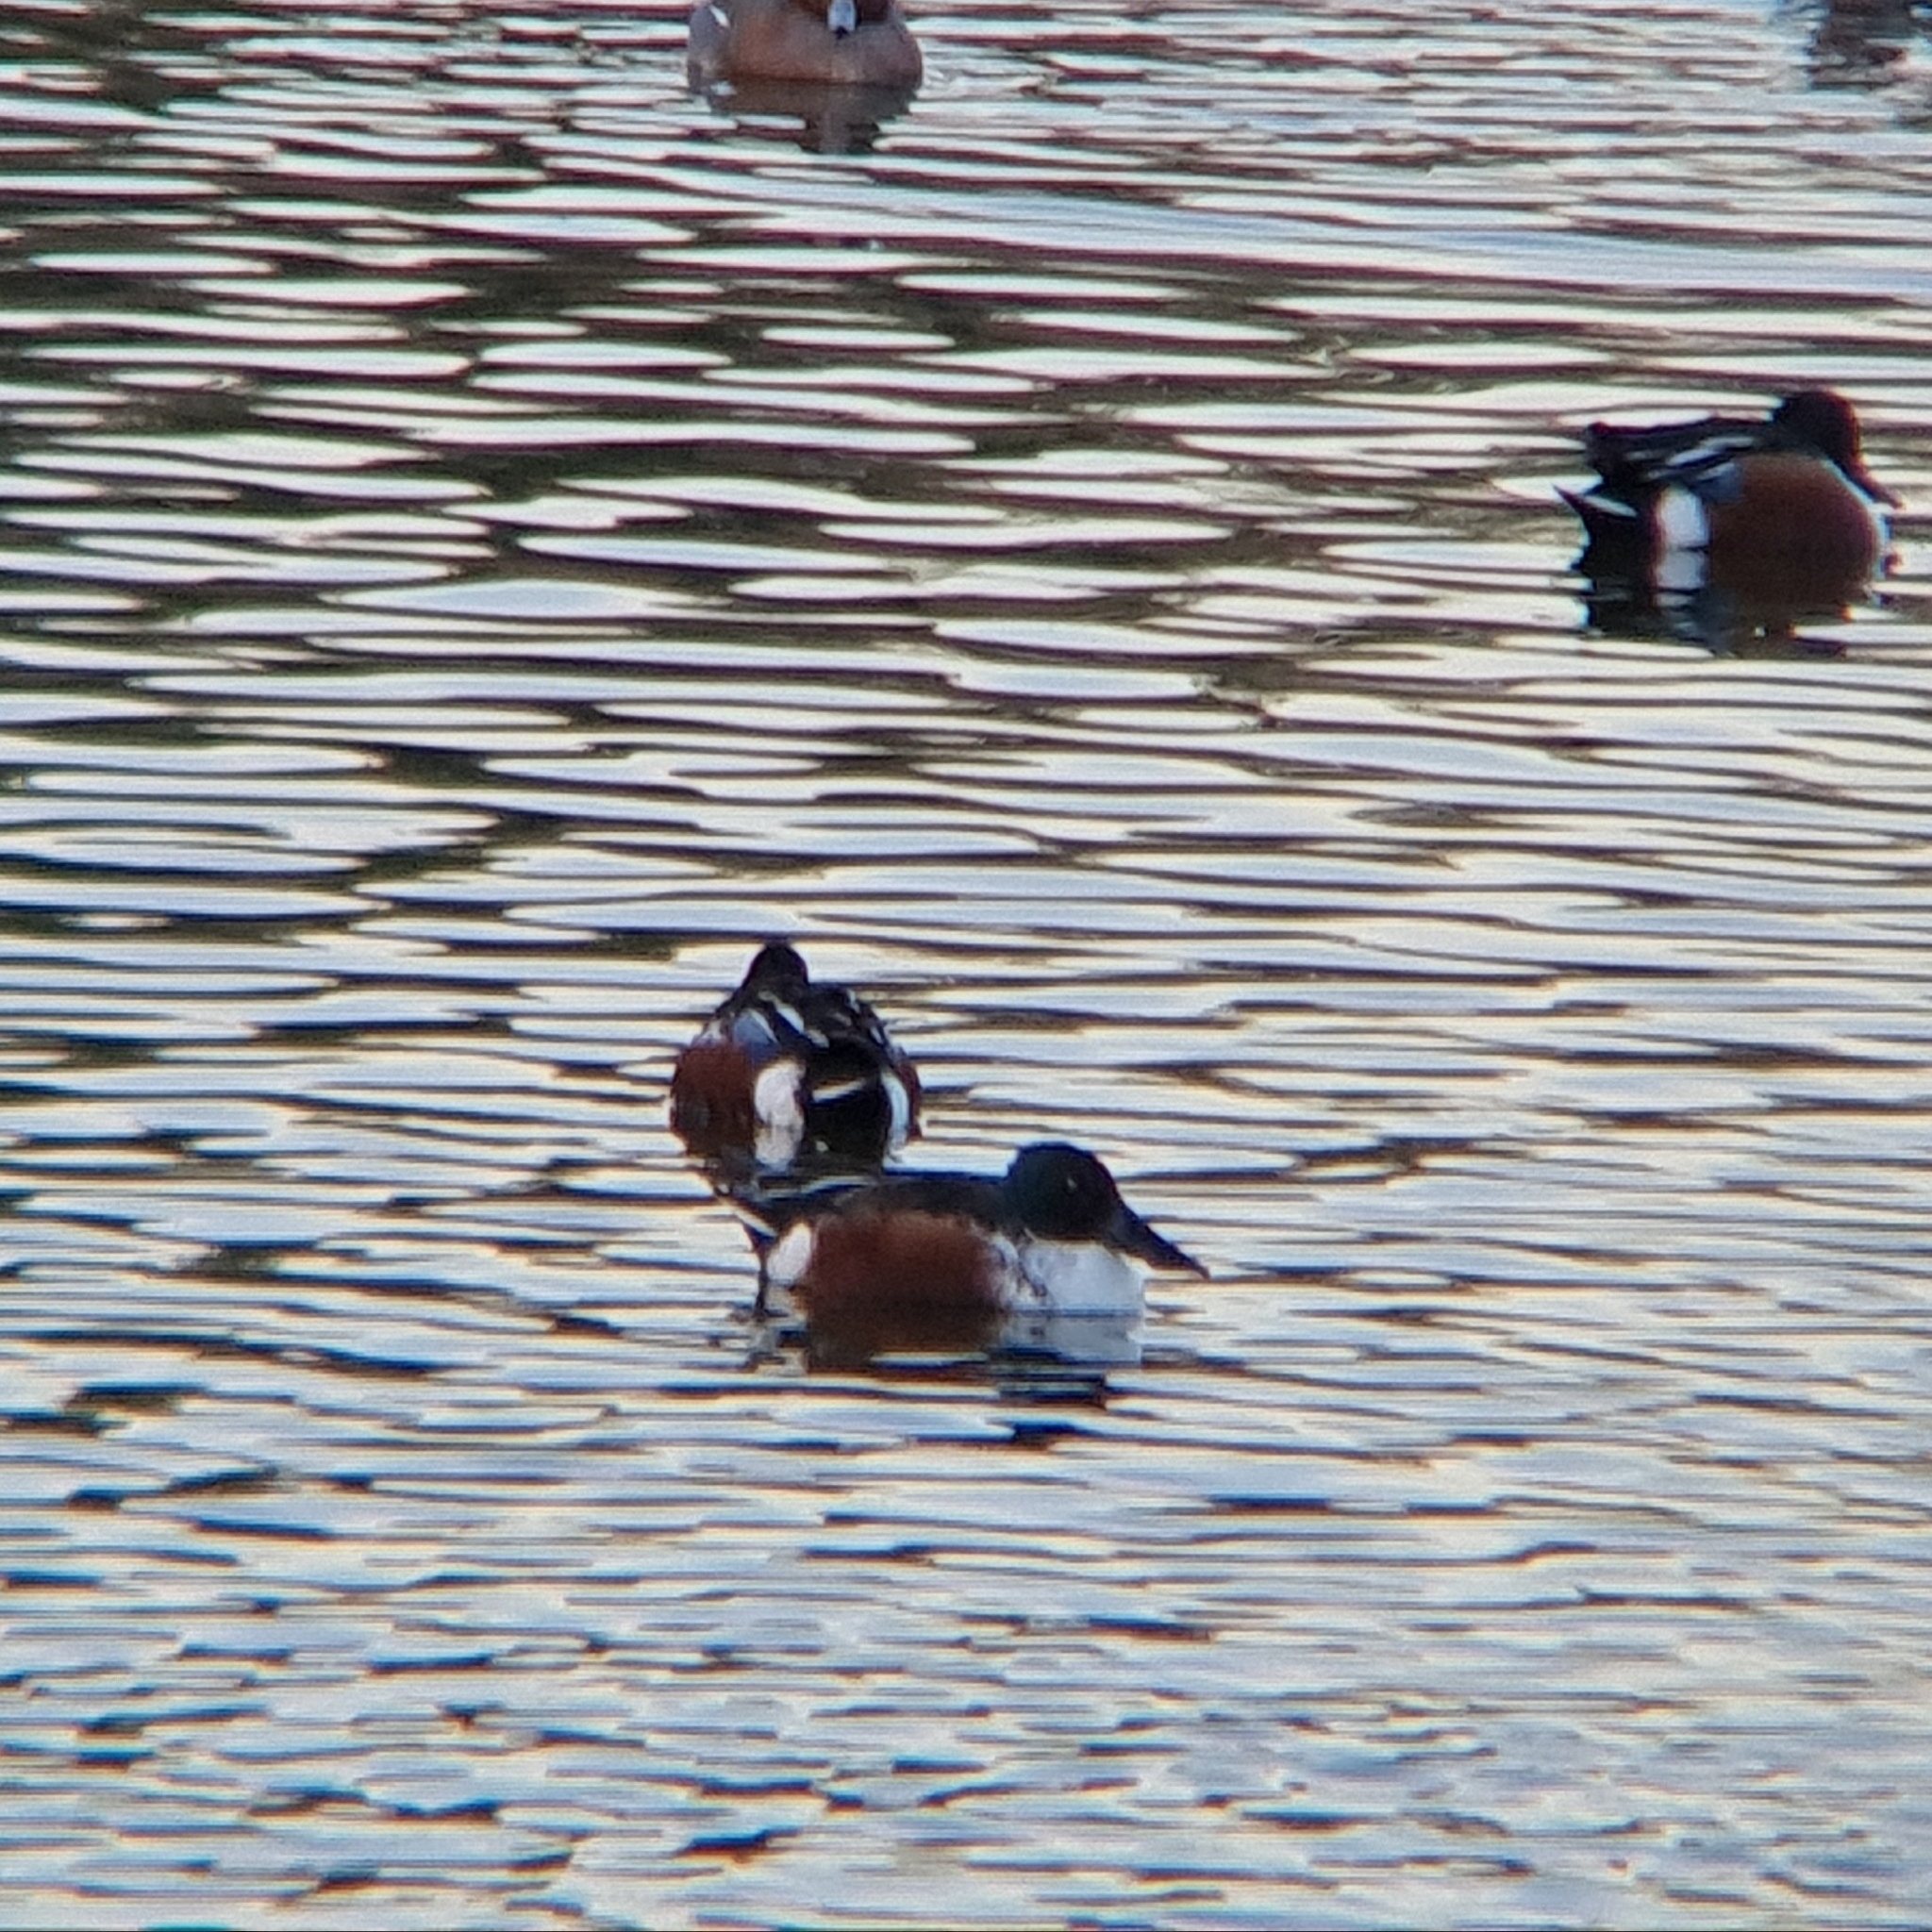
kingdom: Animalia
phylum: Chordata
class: Aves
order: Anseriformes
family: Anatidae
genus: Spatula
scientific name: Spatula clypeata
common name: Northern shoveler
